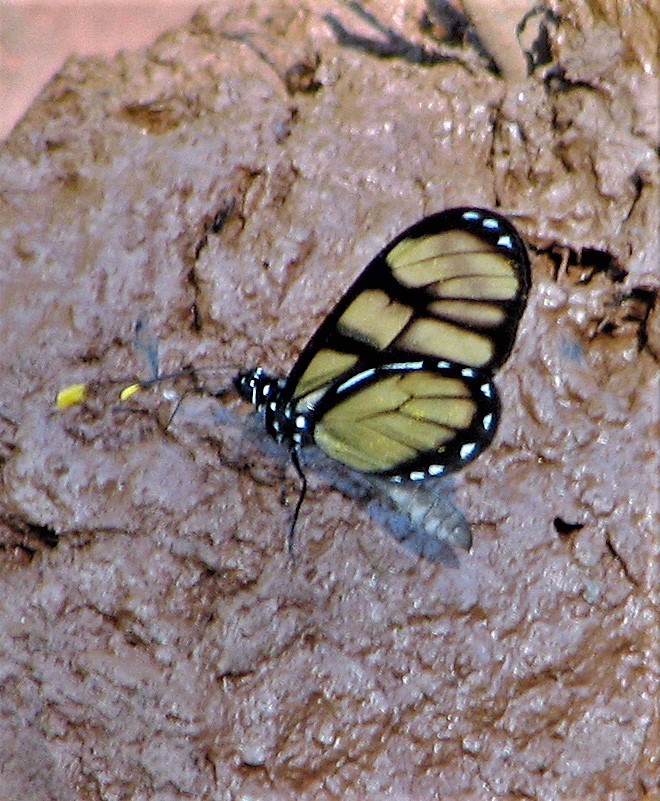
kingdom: Animalia
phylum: Arthropoda
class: Insecta
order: Lepidoptera
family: Nymphalidae
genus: Dircenna
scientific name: Dircenna dero
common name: Dero clearwing
